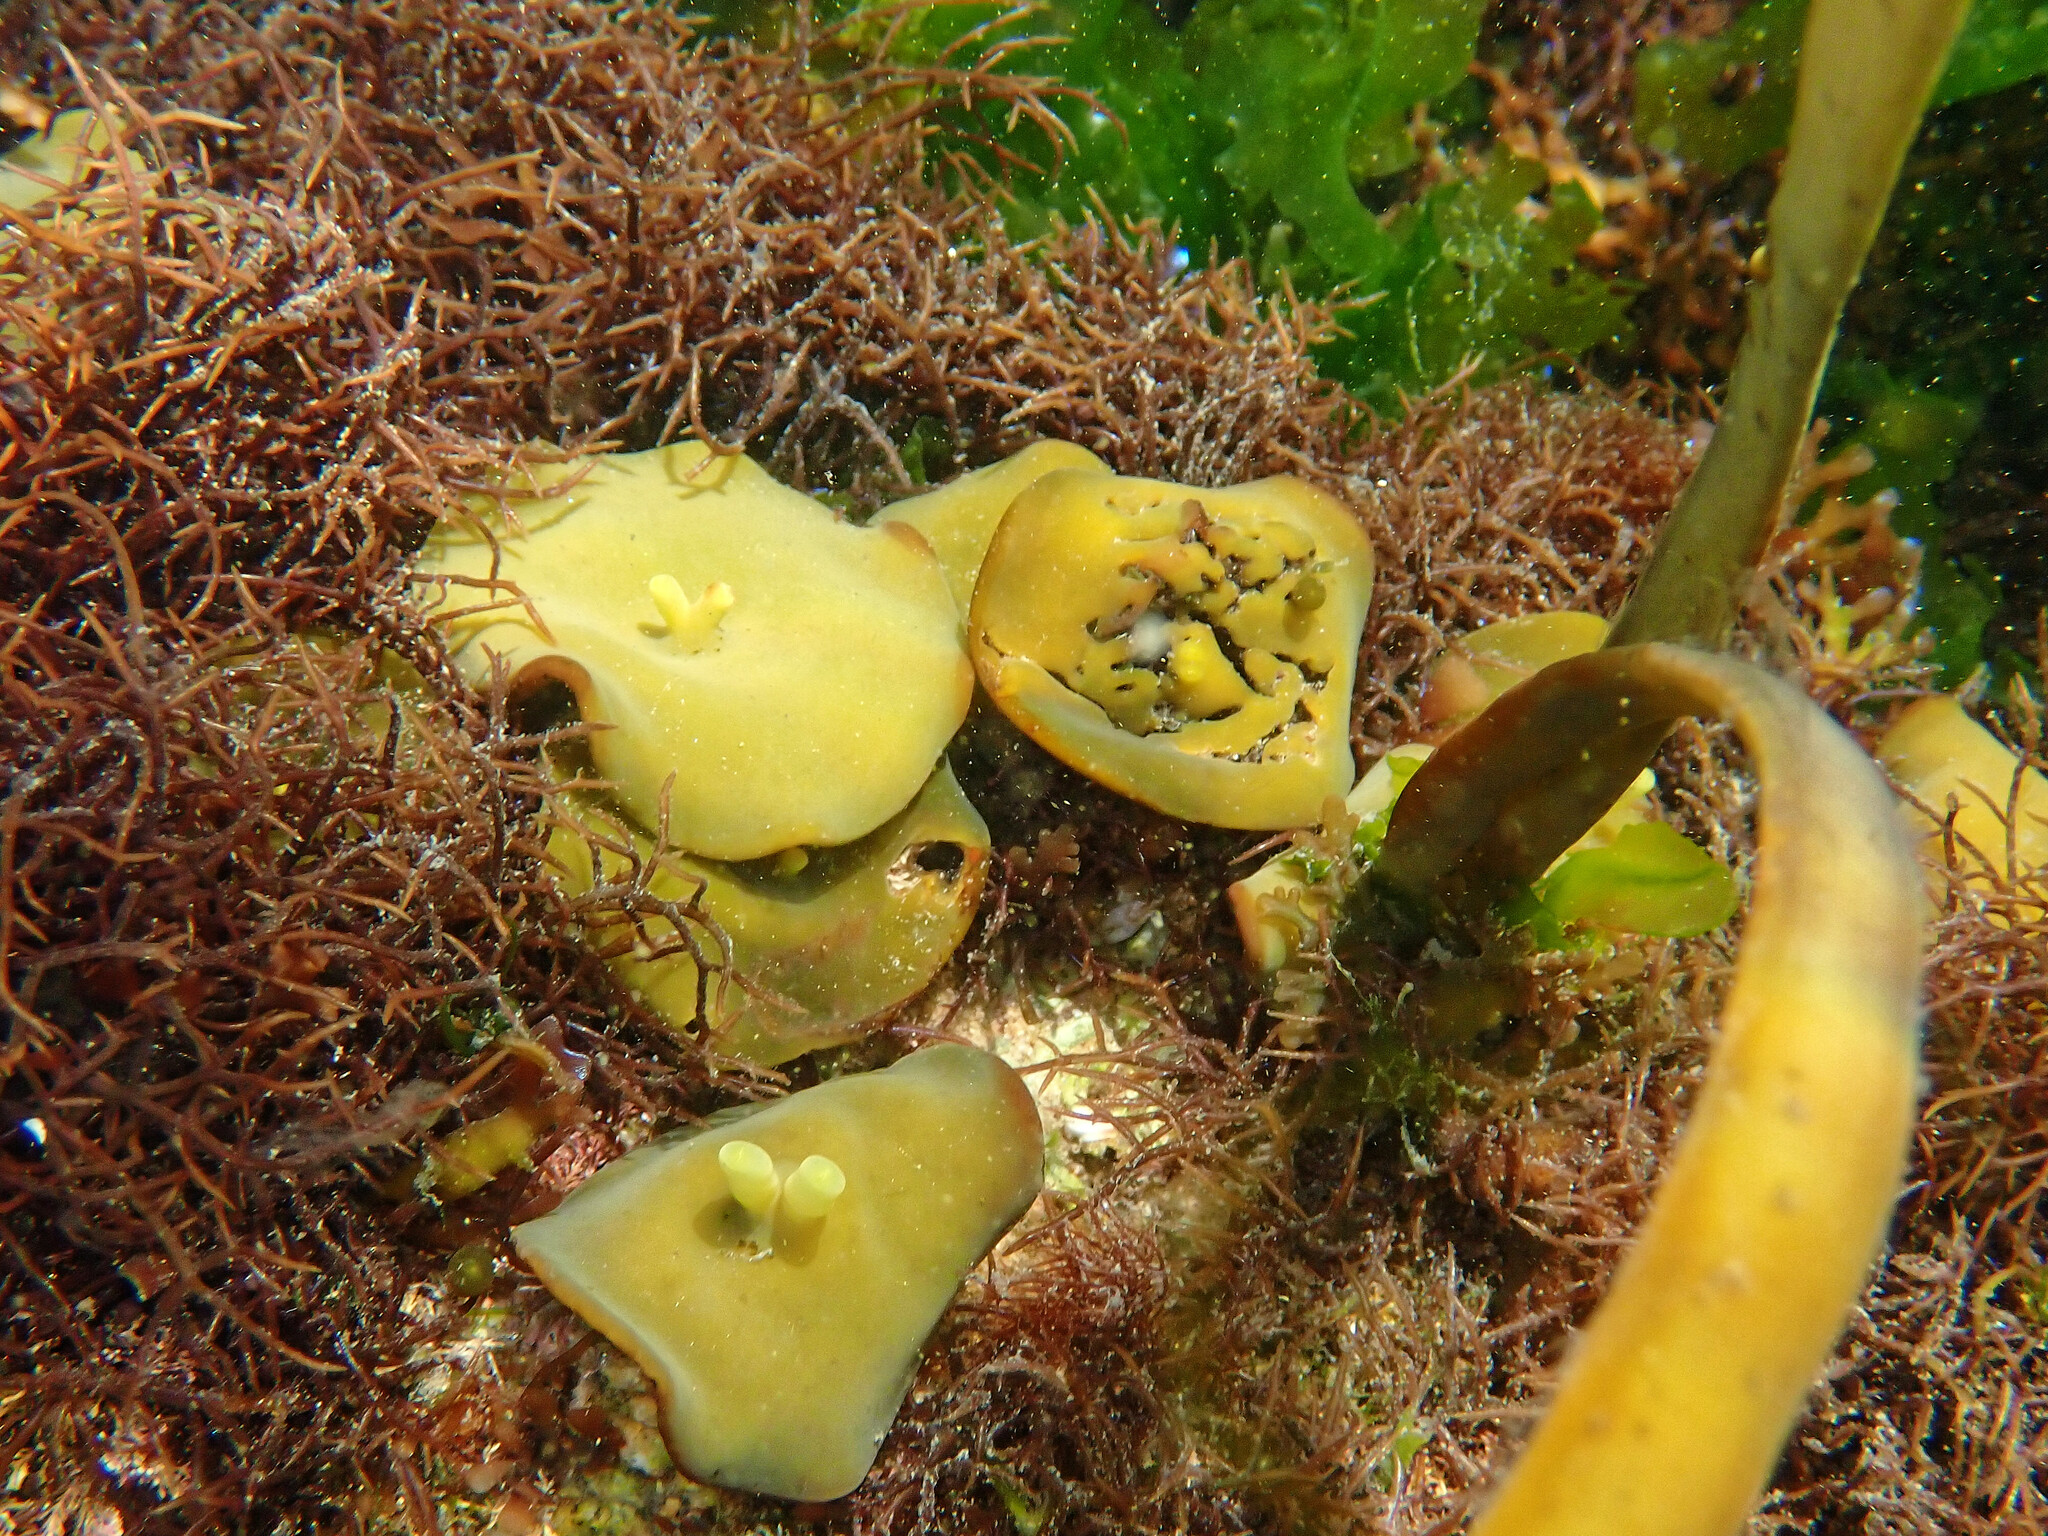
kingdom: Chromista
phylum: Ochrophyta
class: Phaeophyceae
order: Fucales
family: Himanthaliaceae
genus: Himanthalia
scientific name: Himanthalia elongata
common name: Sea-thong
